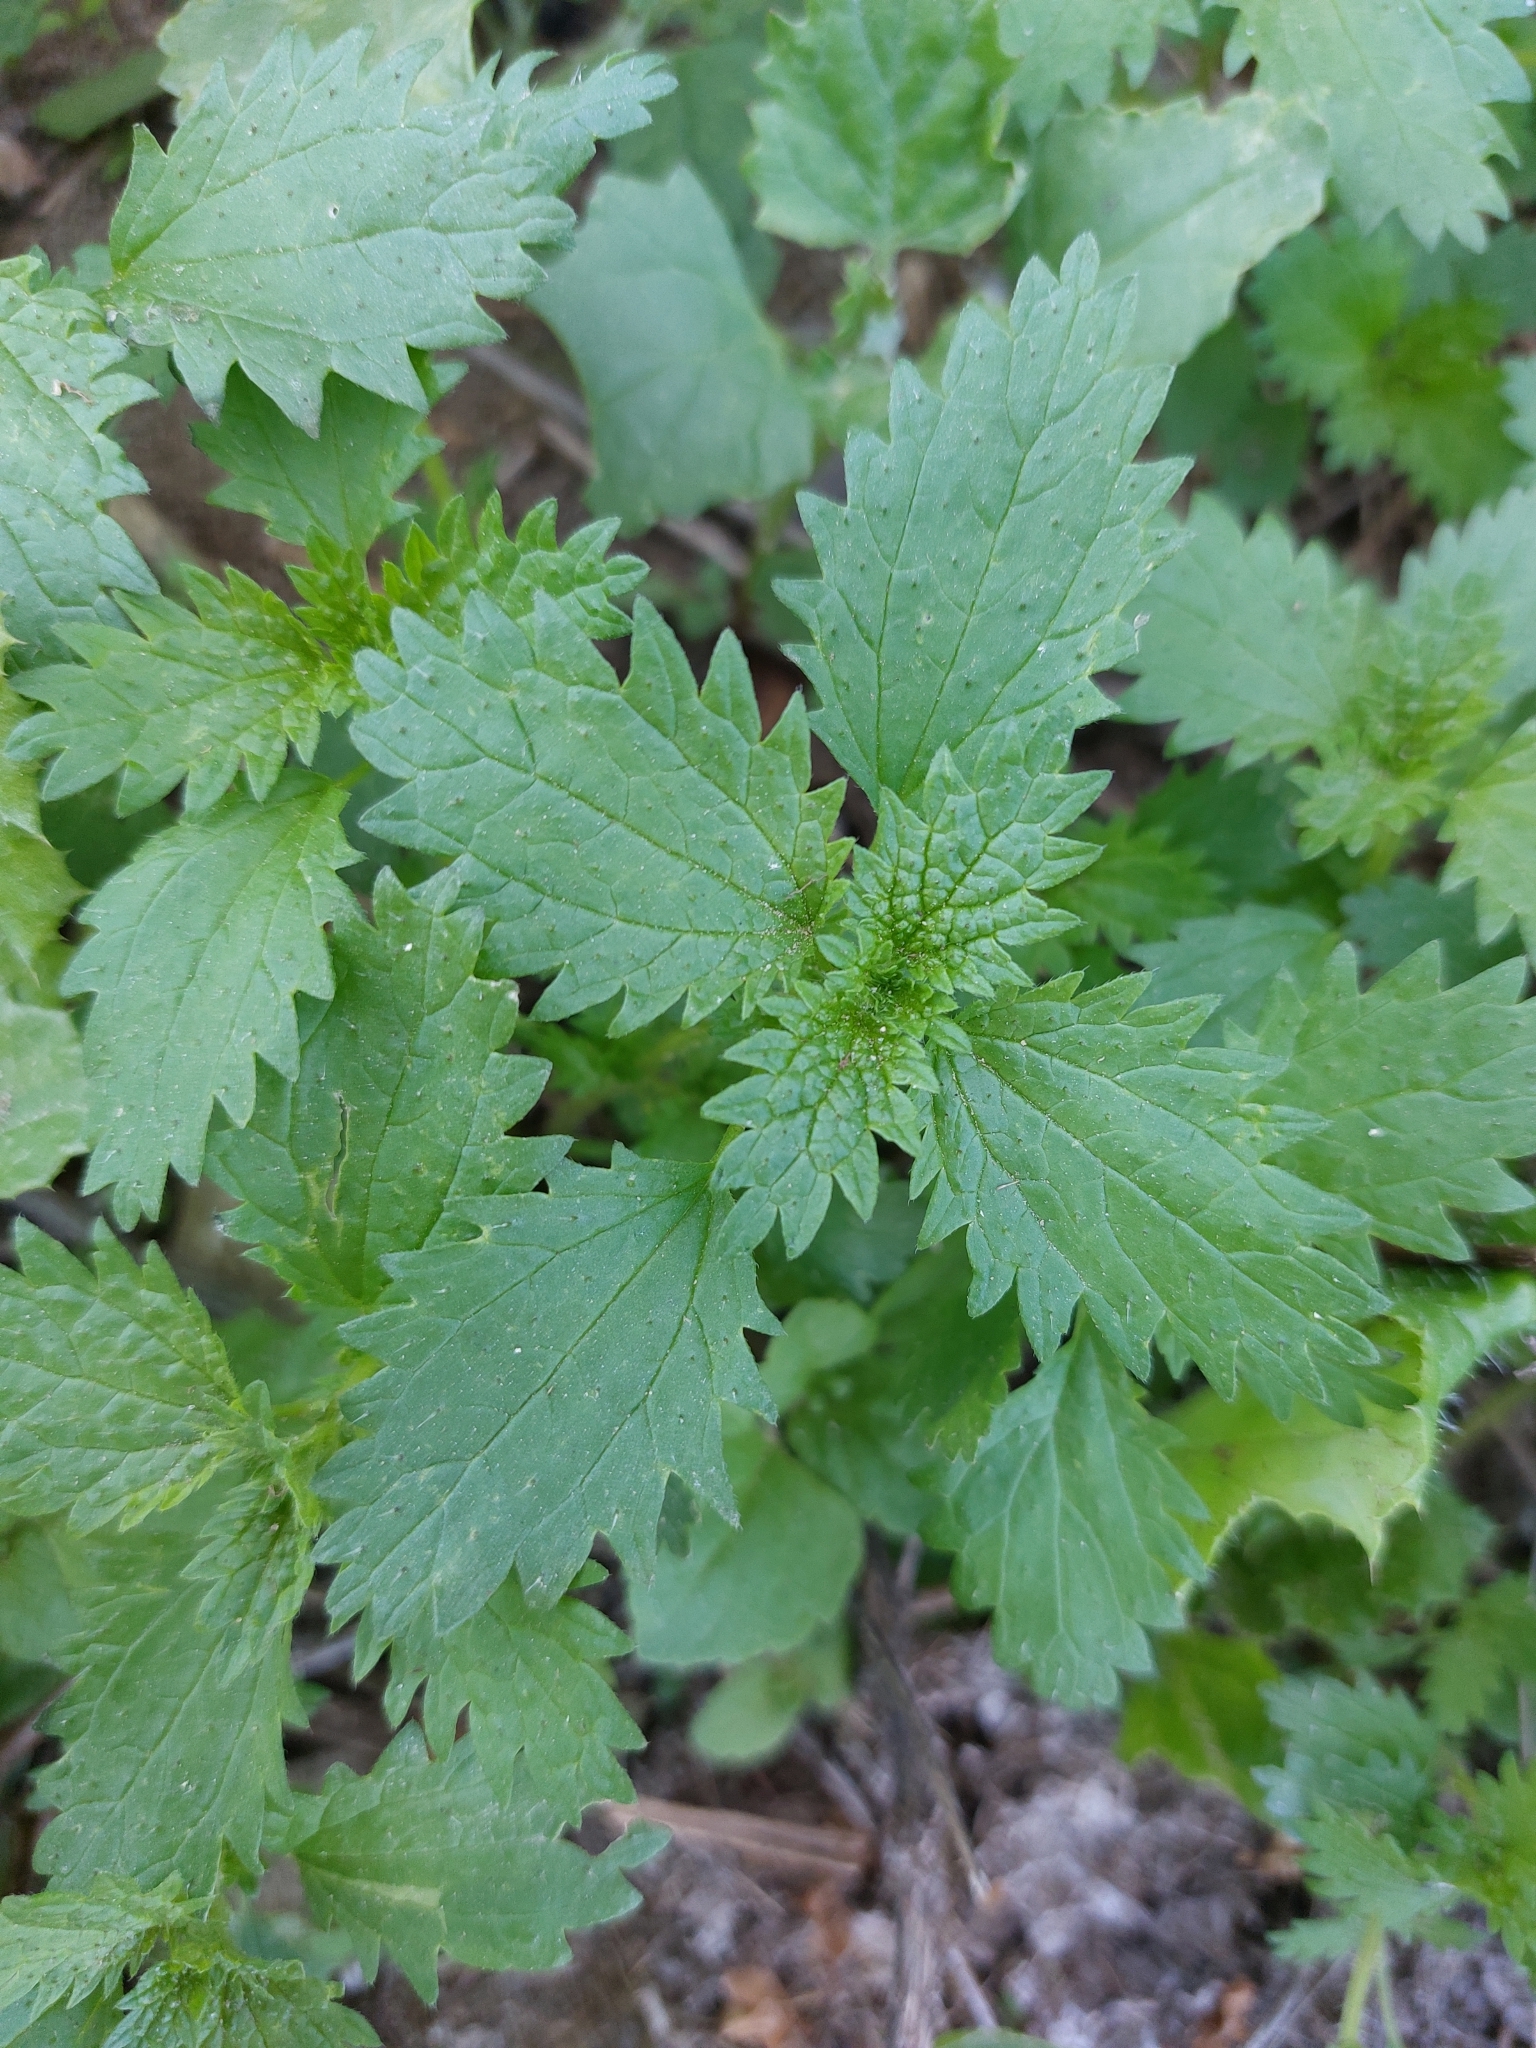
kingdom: Plantae
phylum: Tracheophyta
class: Magnoliopsida
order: Rosales
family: Urticaceae
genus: Urtica
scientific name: Urtica urens
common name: Dwarf nettle
